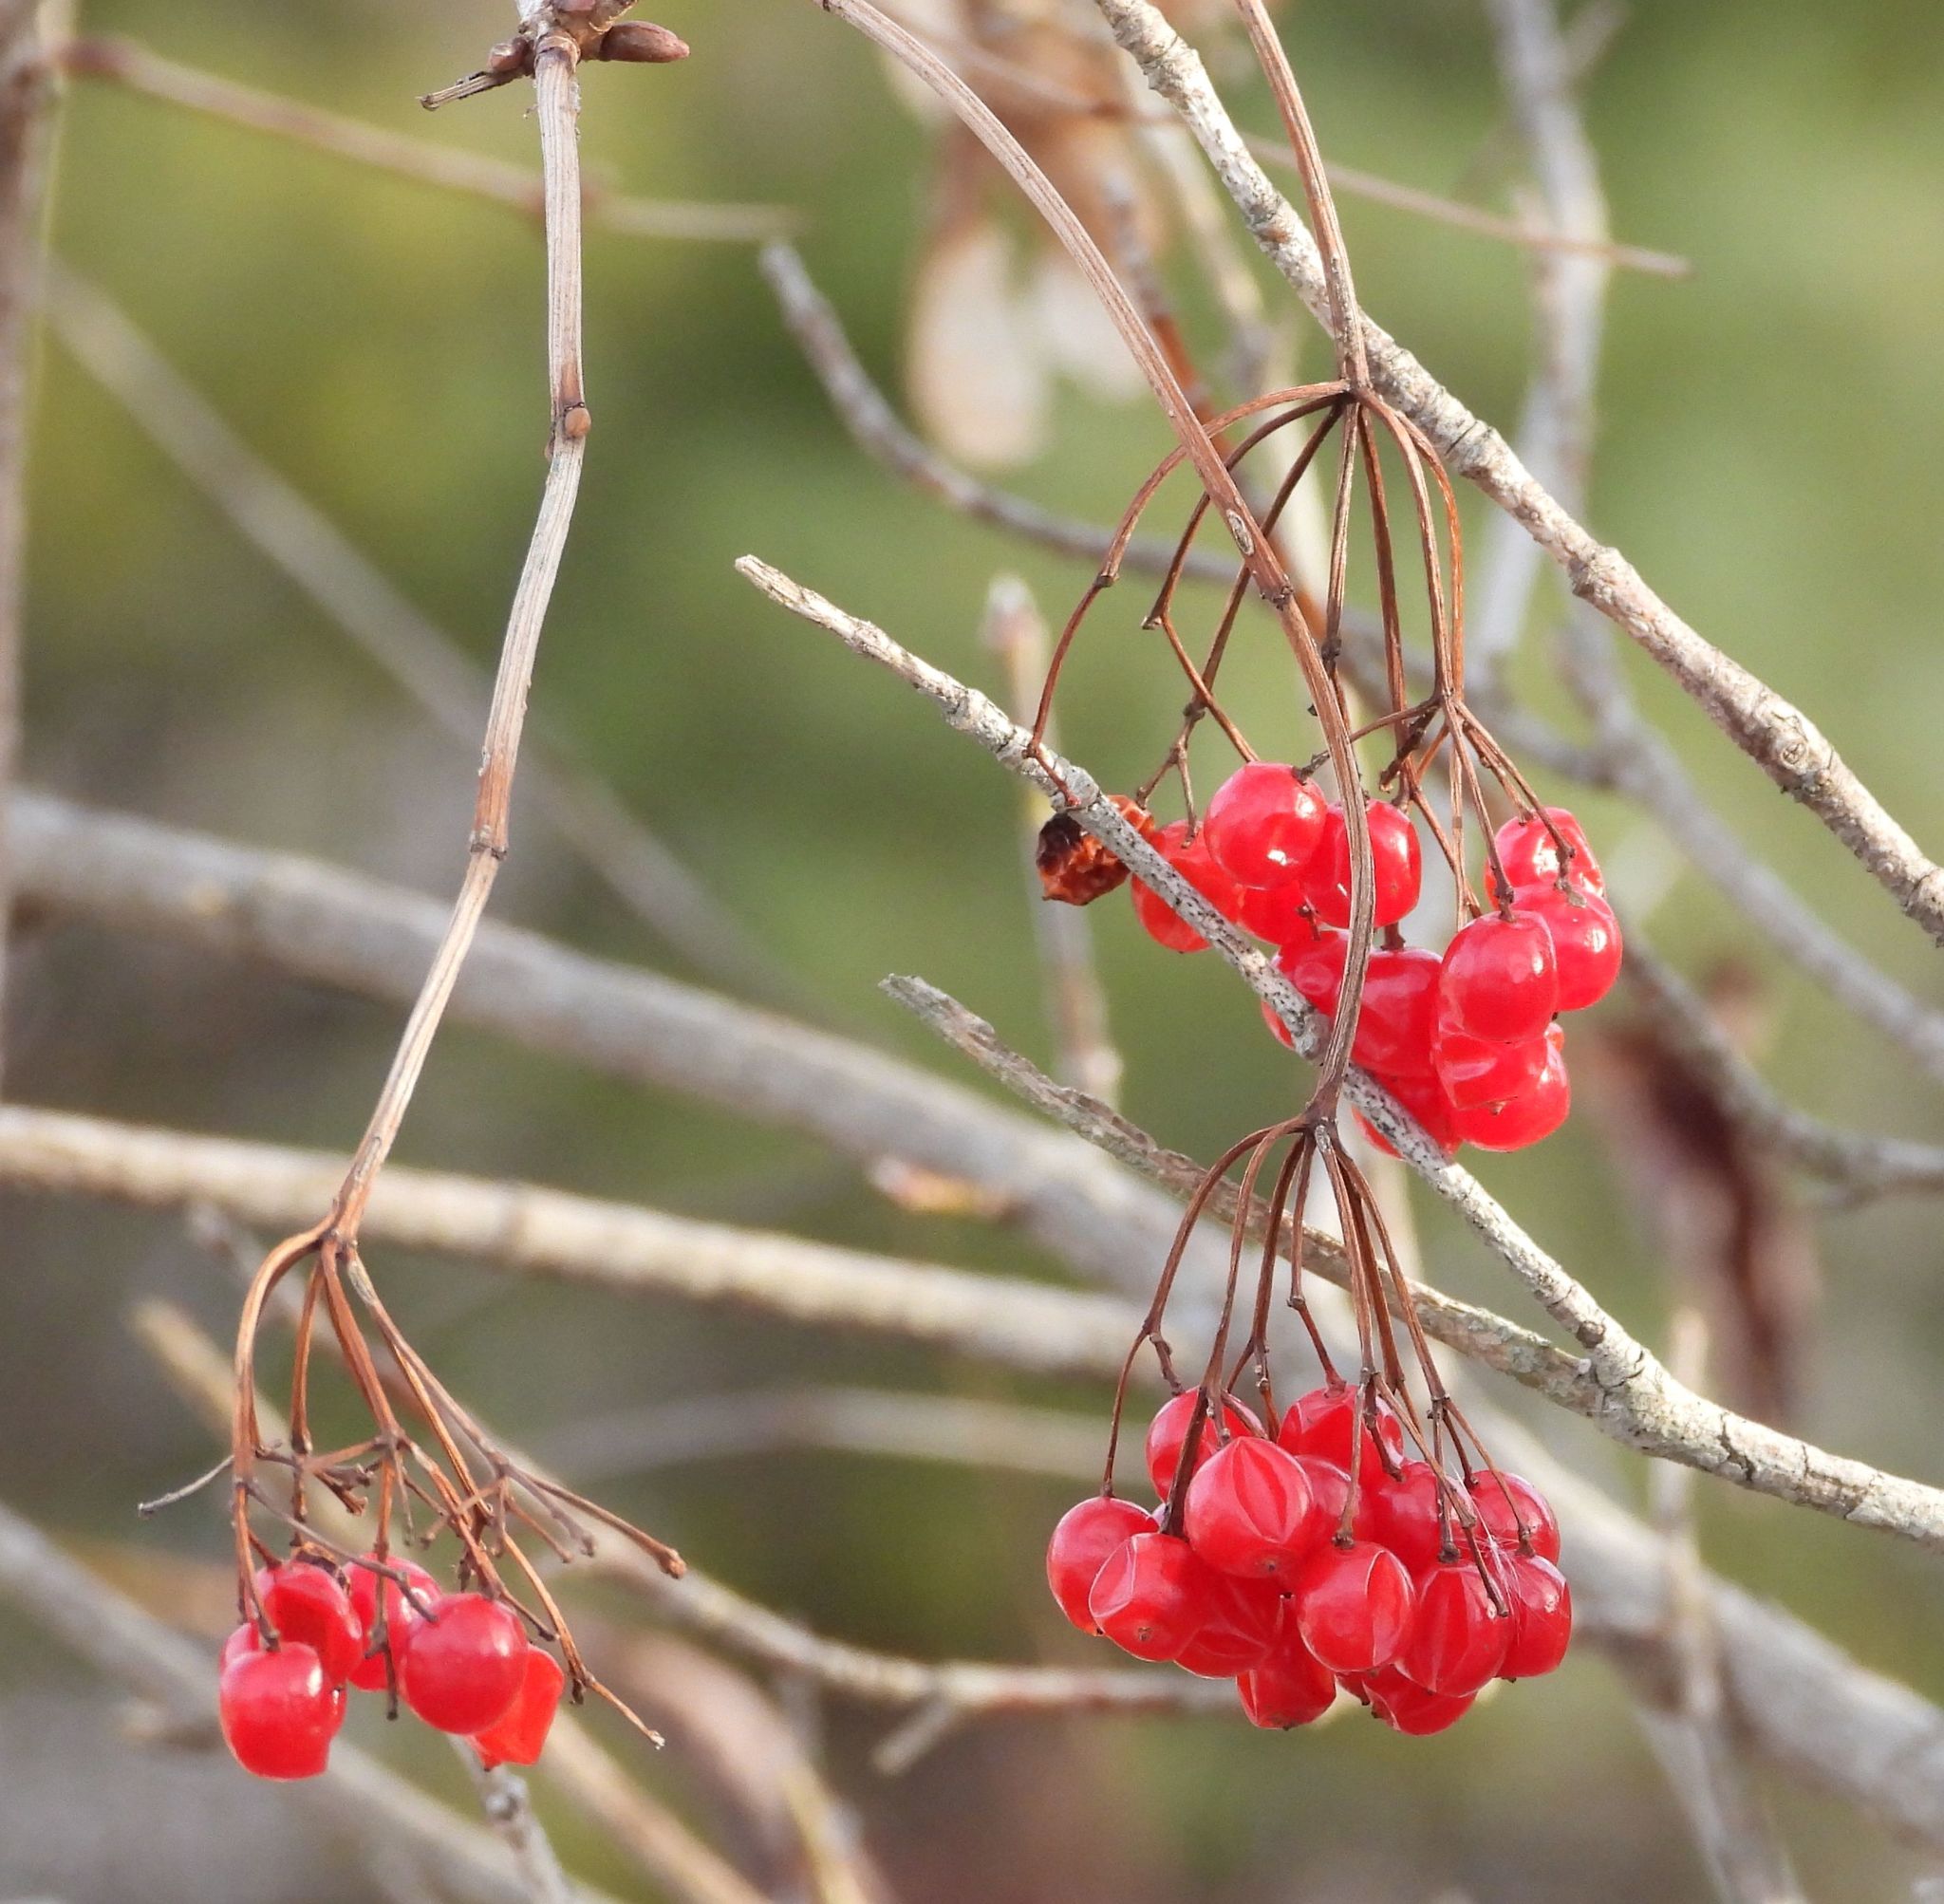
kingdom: Plantae
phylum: Tracheophyta
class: Magnoliopsida
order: Dipsacales
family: Viburnaceae
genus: Viburnum
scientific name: Viburnum opulus
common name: Guelder-rose
